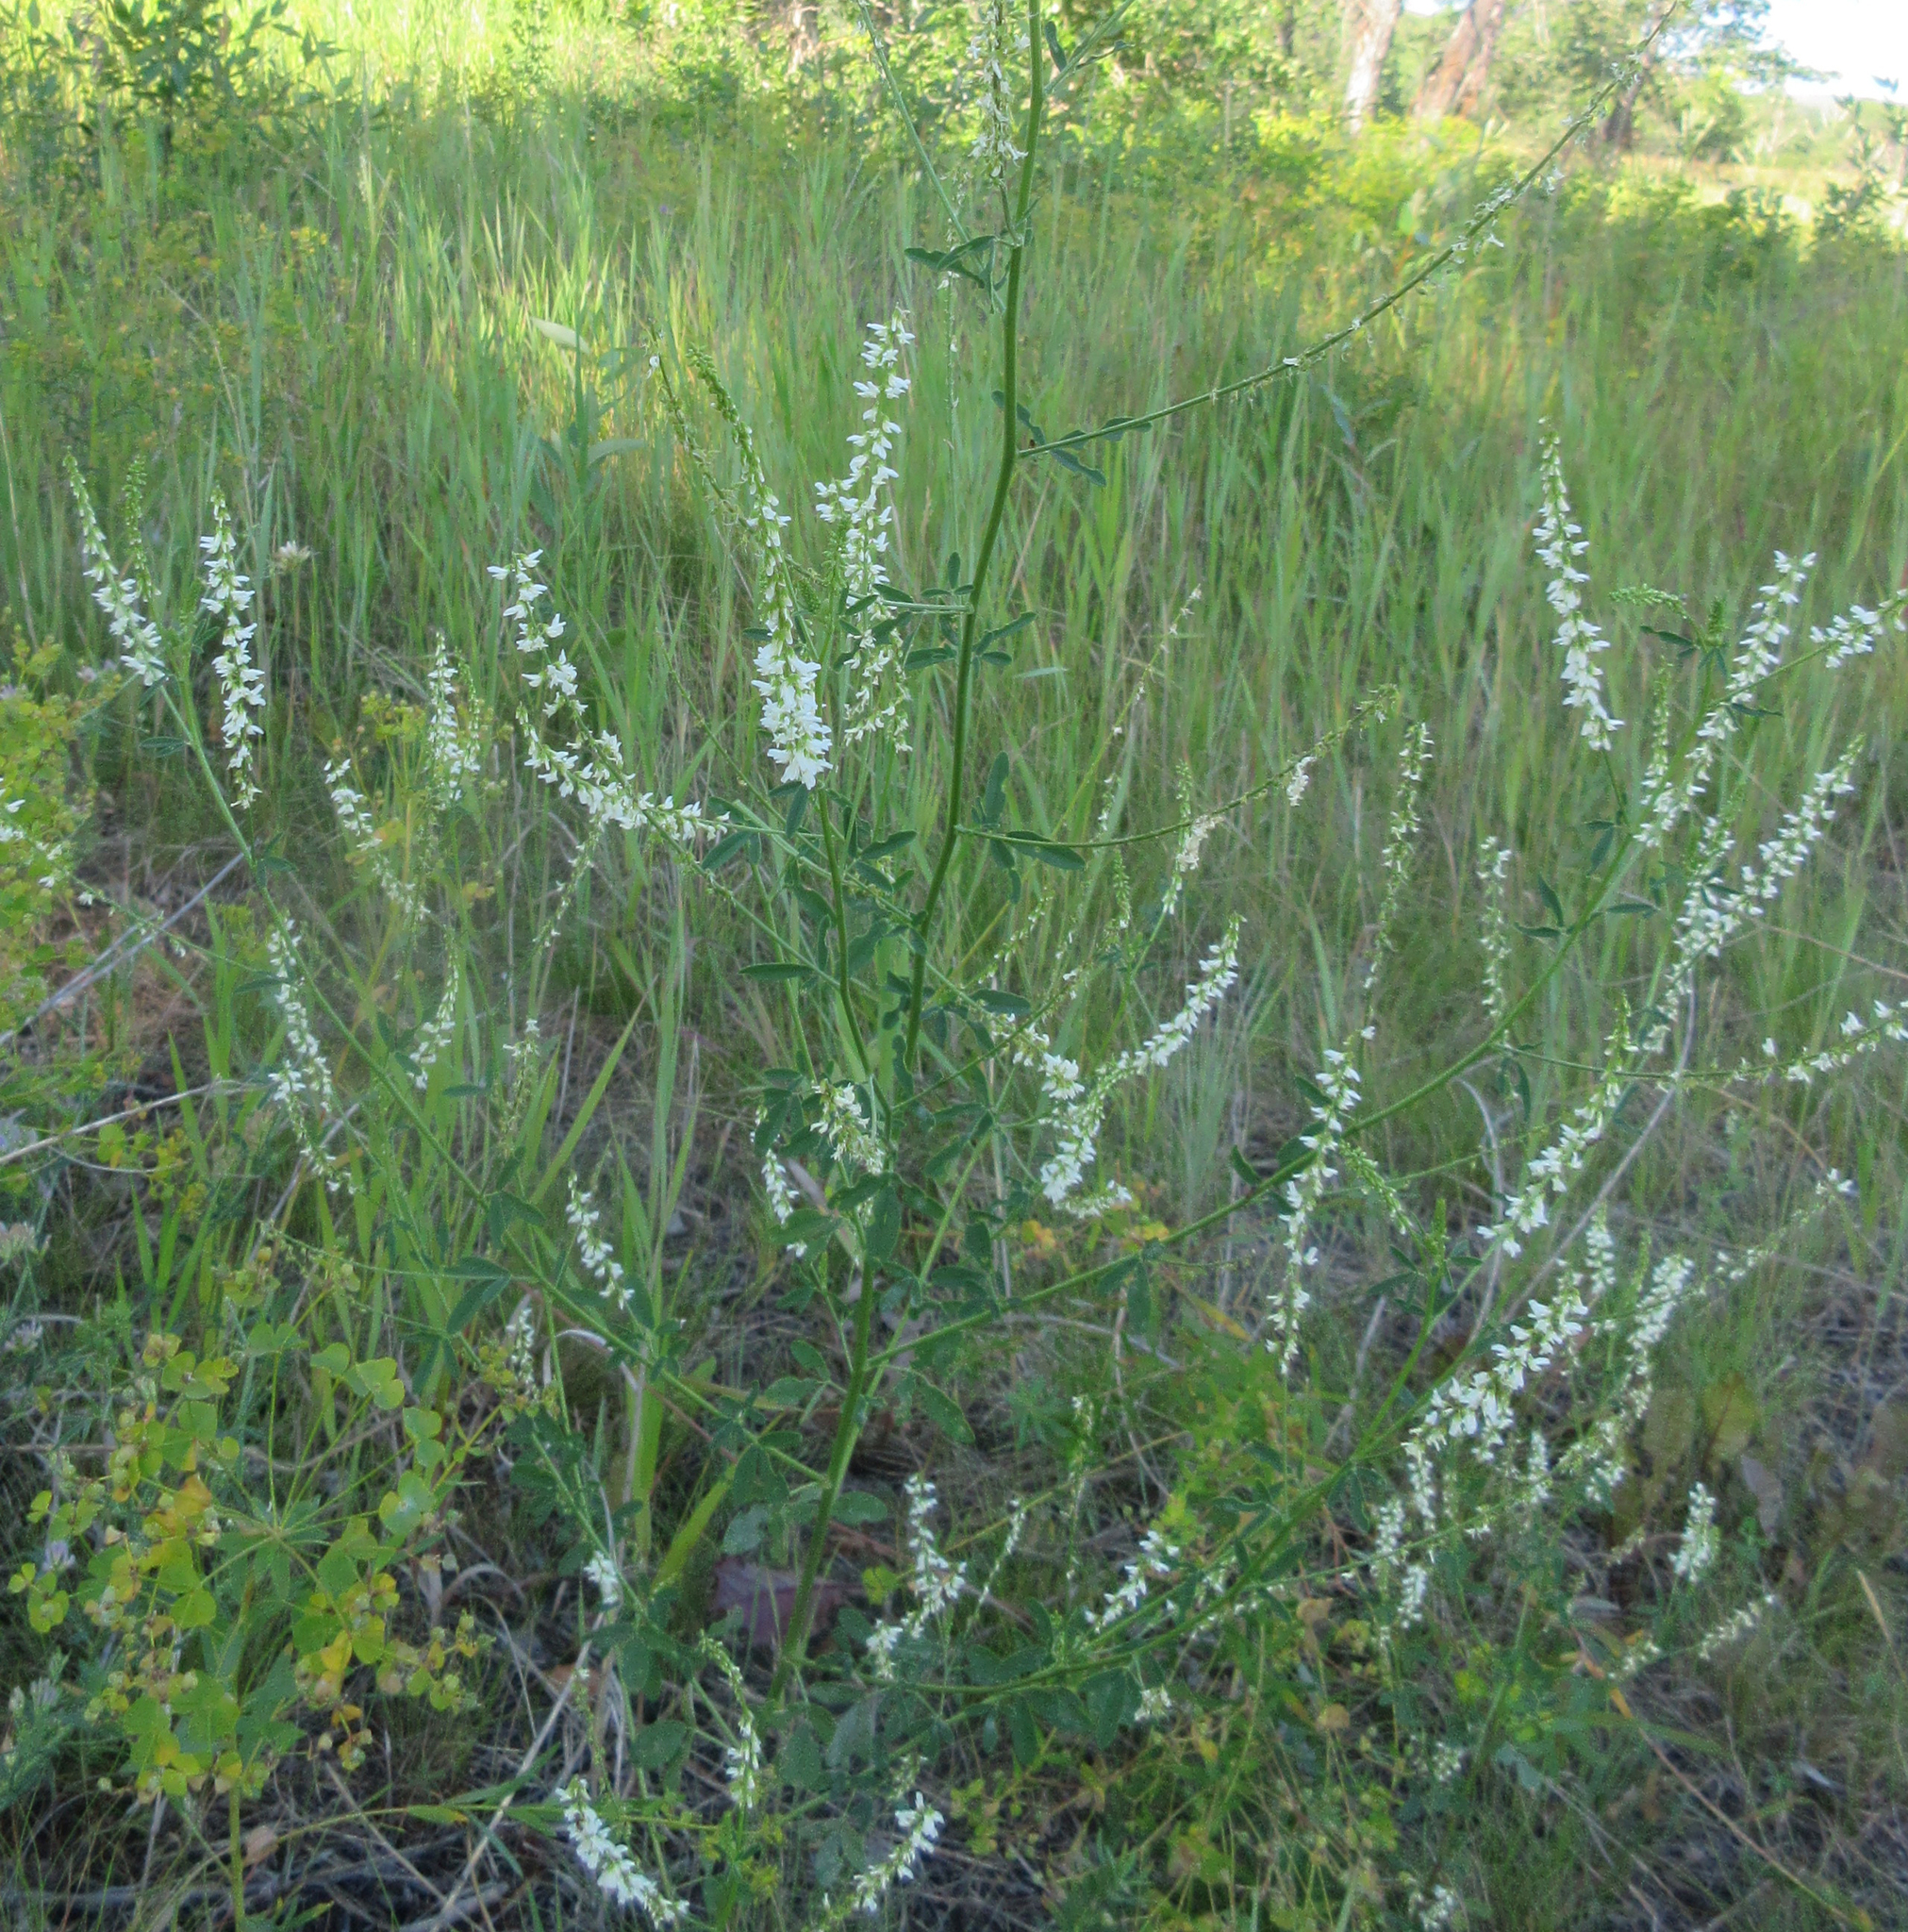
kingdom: Plantae
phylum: Tracheophyta
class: Magnoliopsida
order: Fabales
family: Fabaceae
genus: Melilotus
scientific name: Melilotus albus
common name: White melilot
